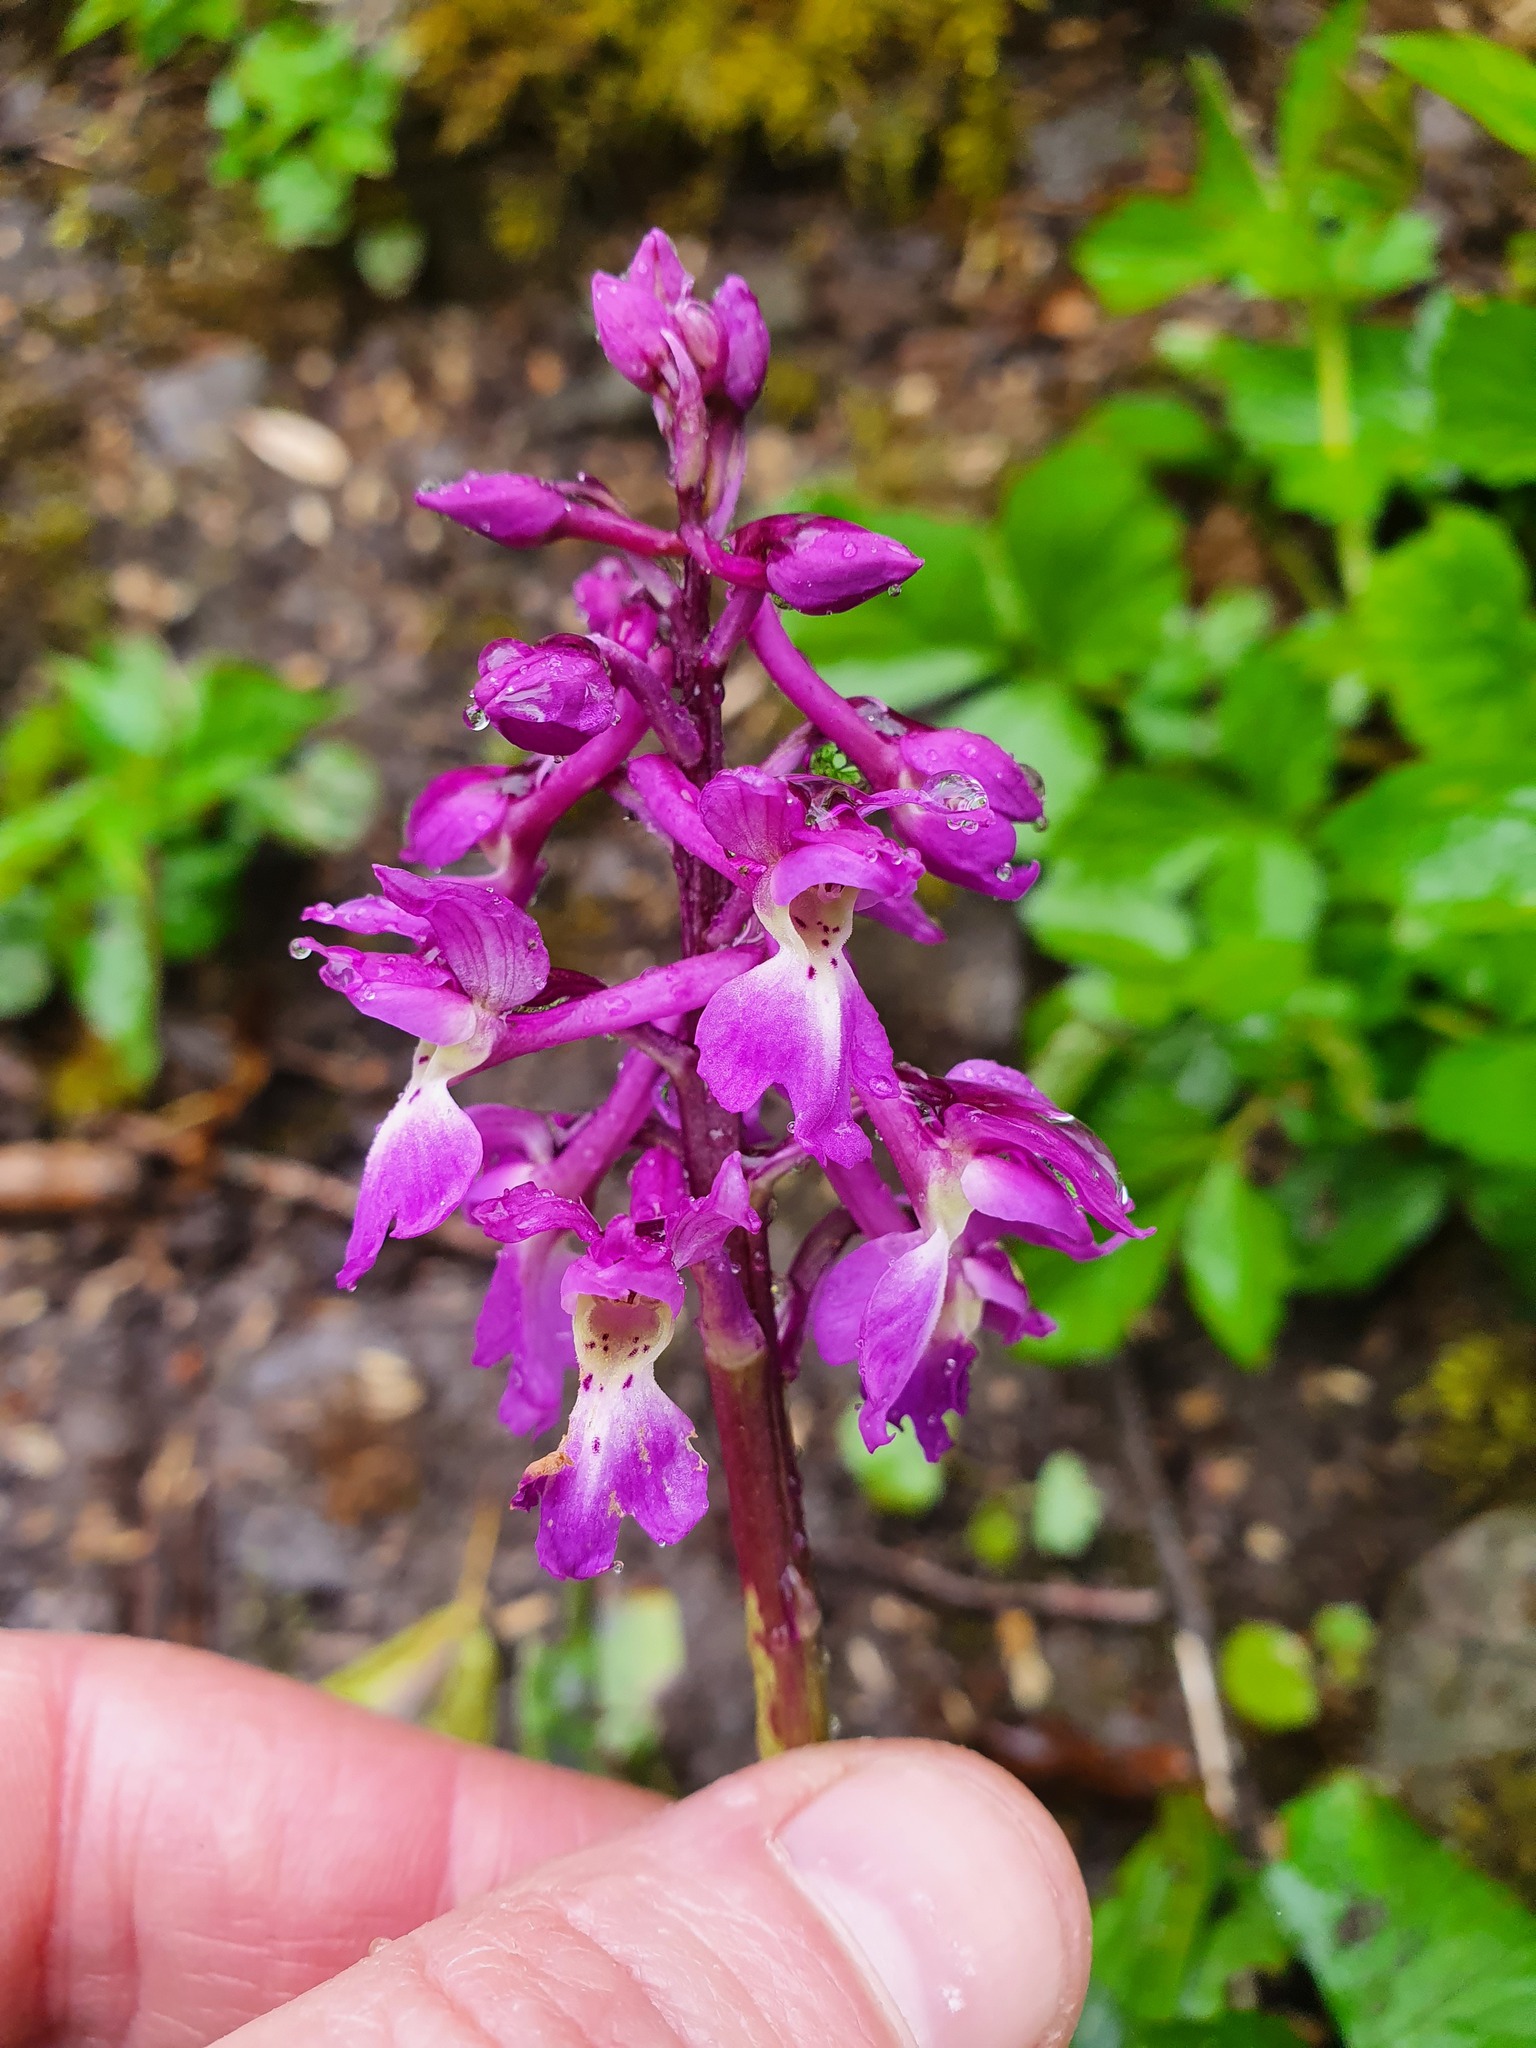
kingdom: Plantae
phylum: Tracheophyta
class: Liliopsida
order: Asparagales
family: Orchidaceae
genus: Orchis
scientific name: Orchis mascula
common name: Early-purple orchid
